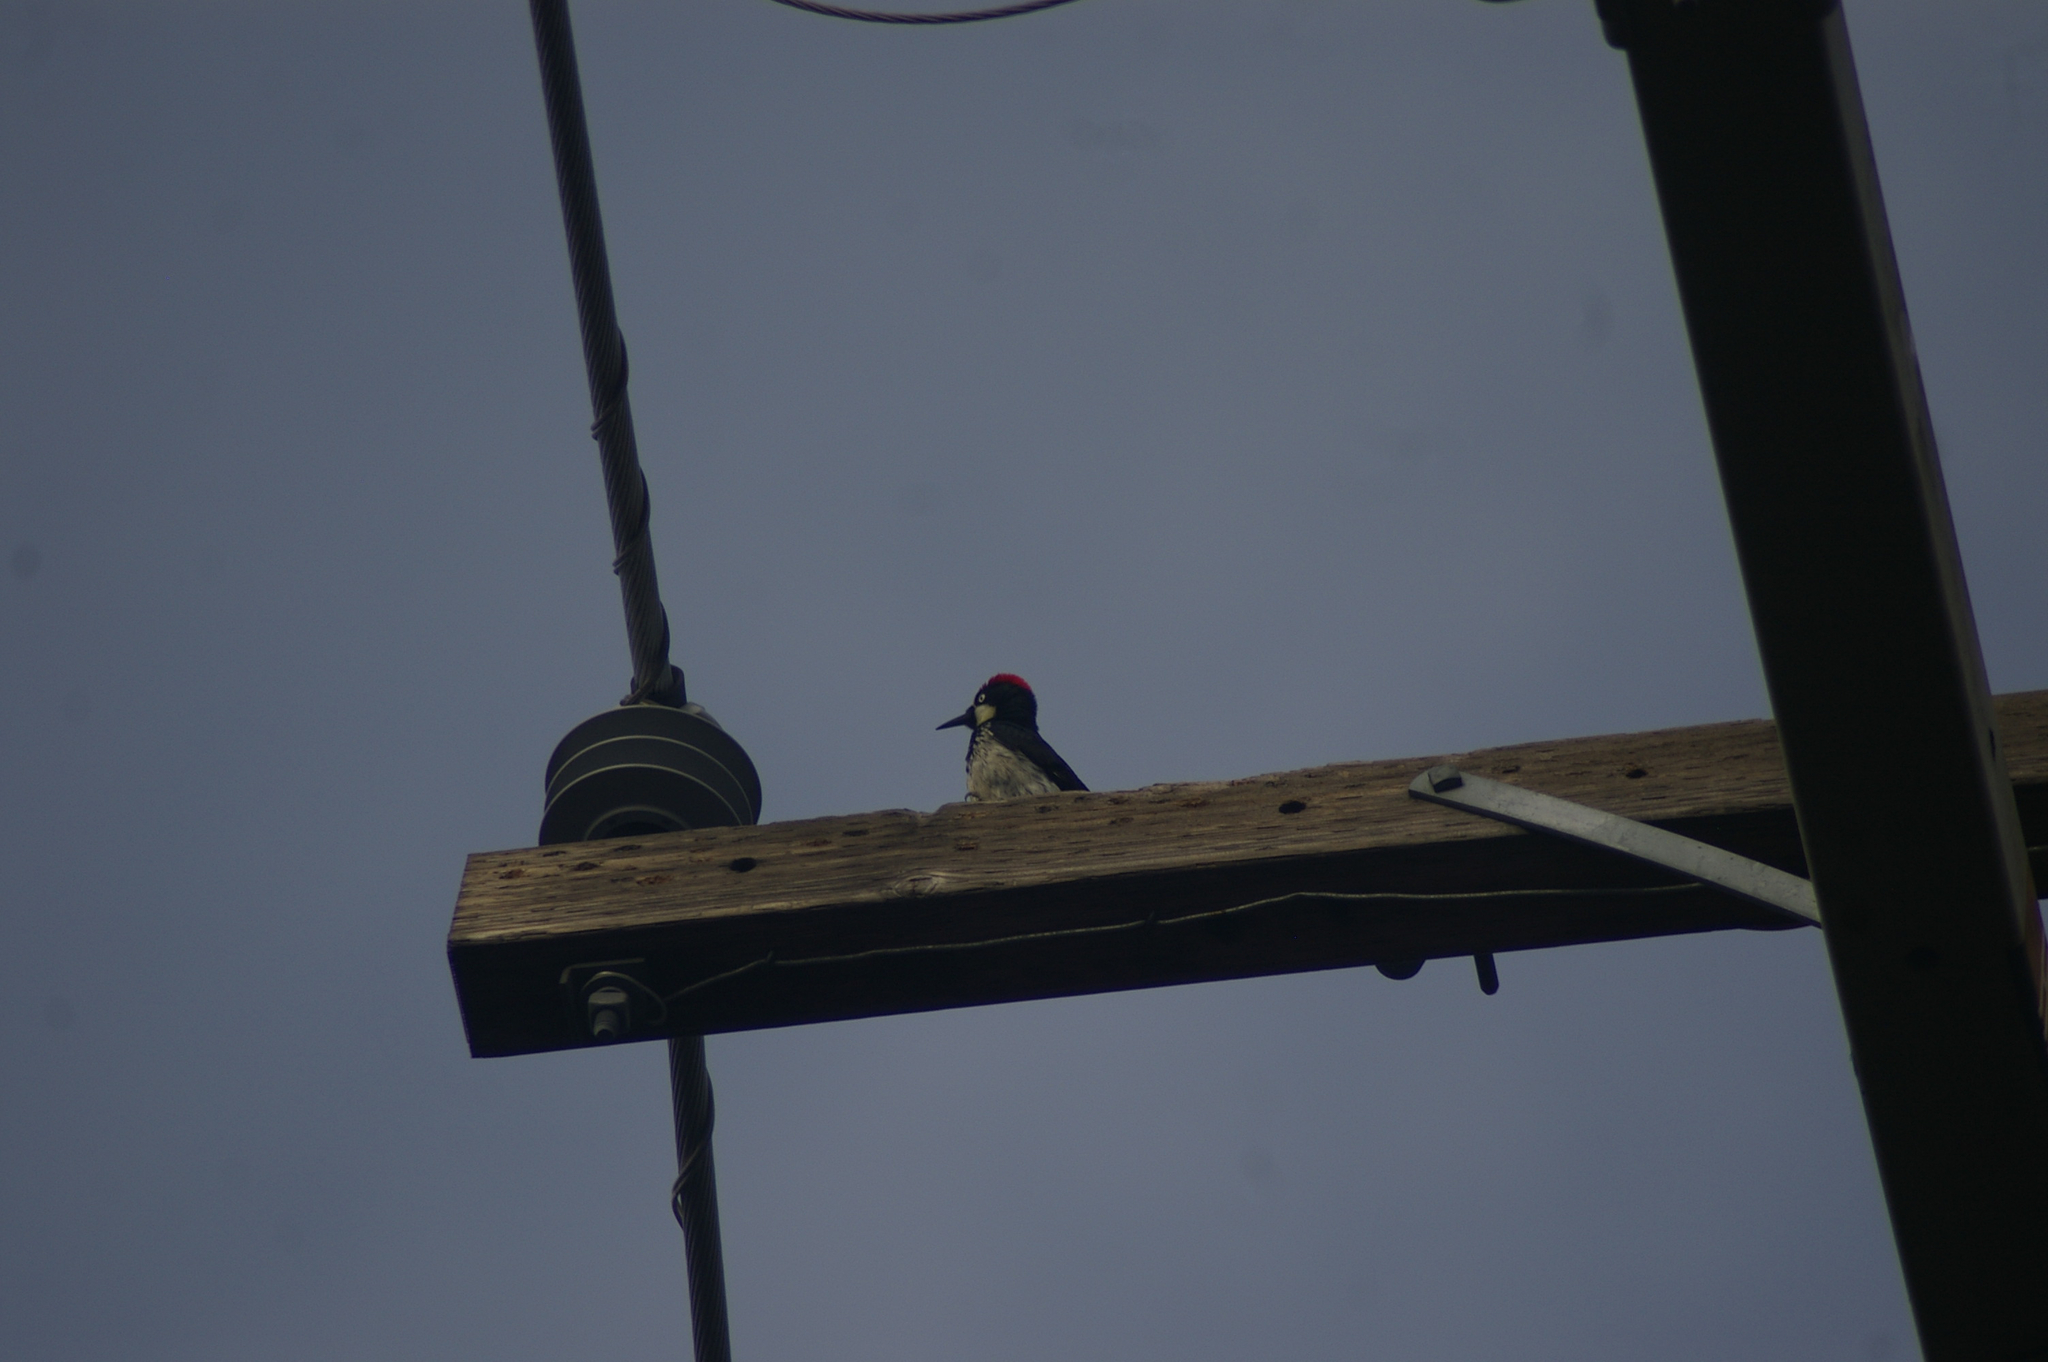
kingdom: Animalia
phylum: Chordata
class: Aves
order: Piciformes
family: Picidae
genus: Melanerpes
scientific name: Melanerpes formicivorus
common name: Acorn woodpecker
